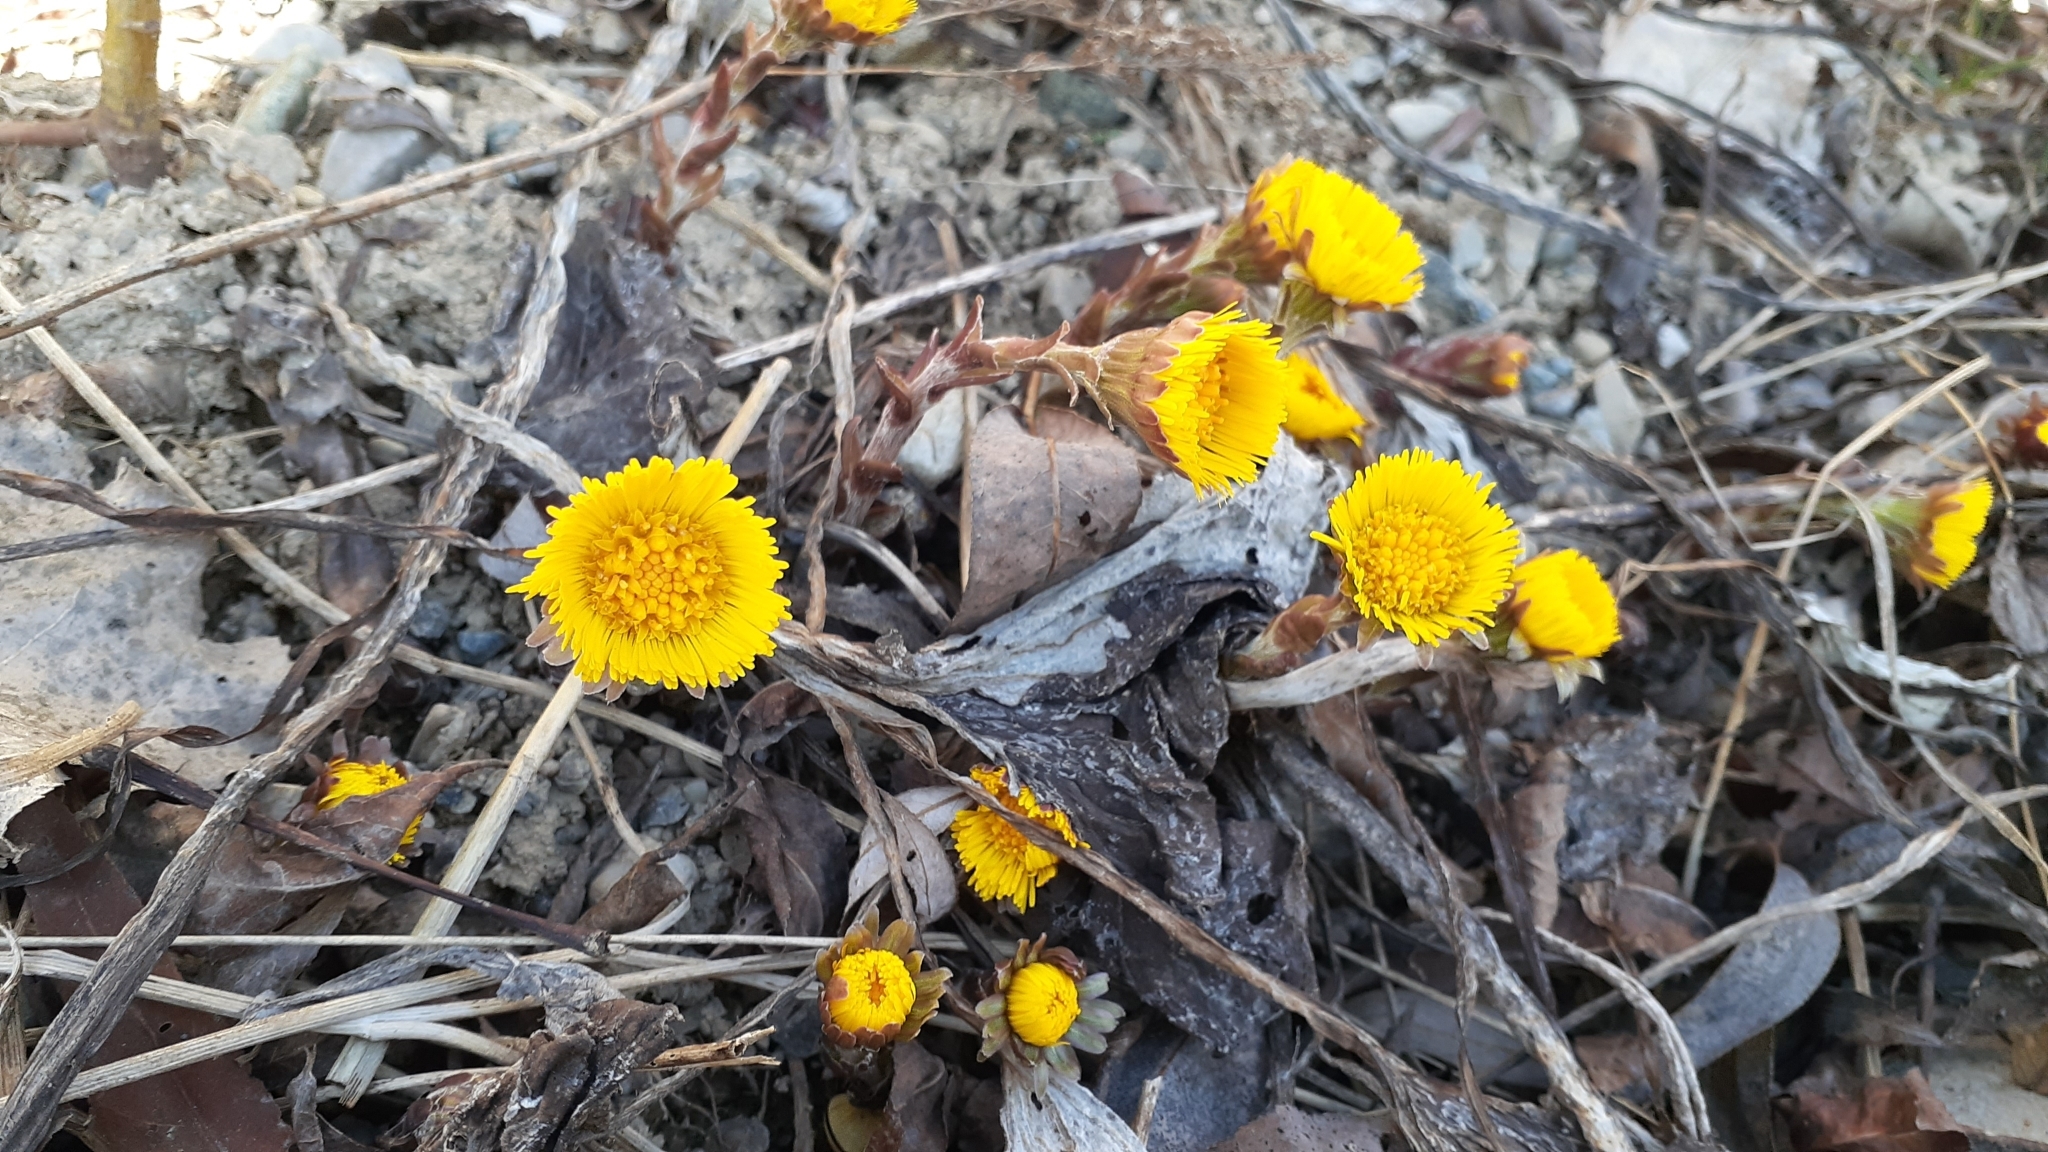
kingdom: Plantae
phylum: Tracheophyta
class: Magnoliopsida
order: Asterales
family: Asteraceae
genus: Tussilago
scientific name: Tussilago farfara
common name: Coltsfoot
